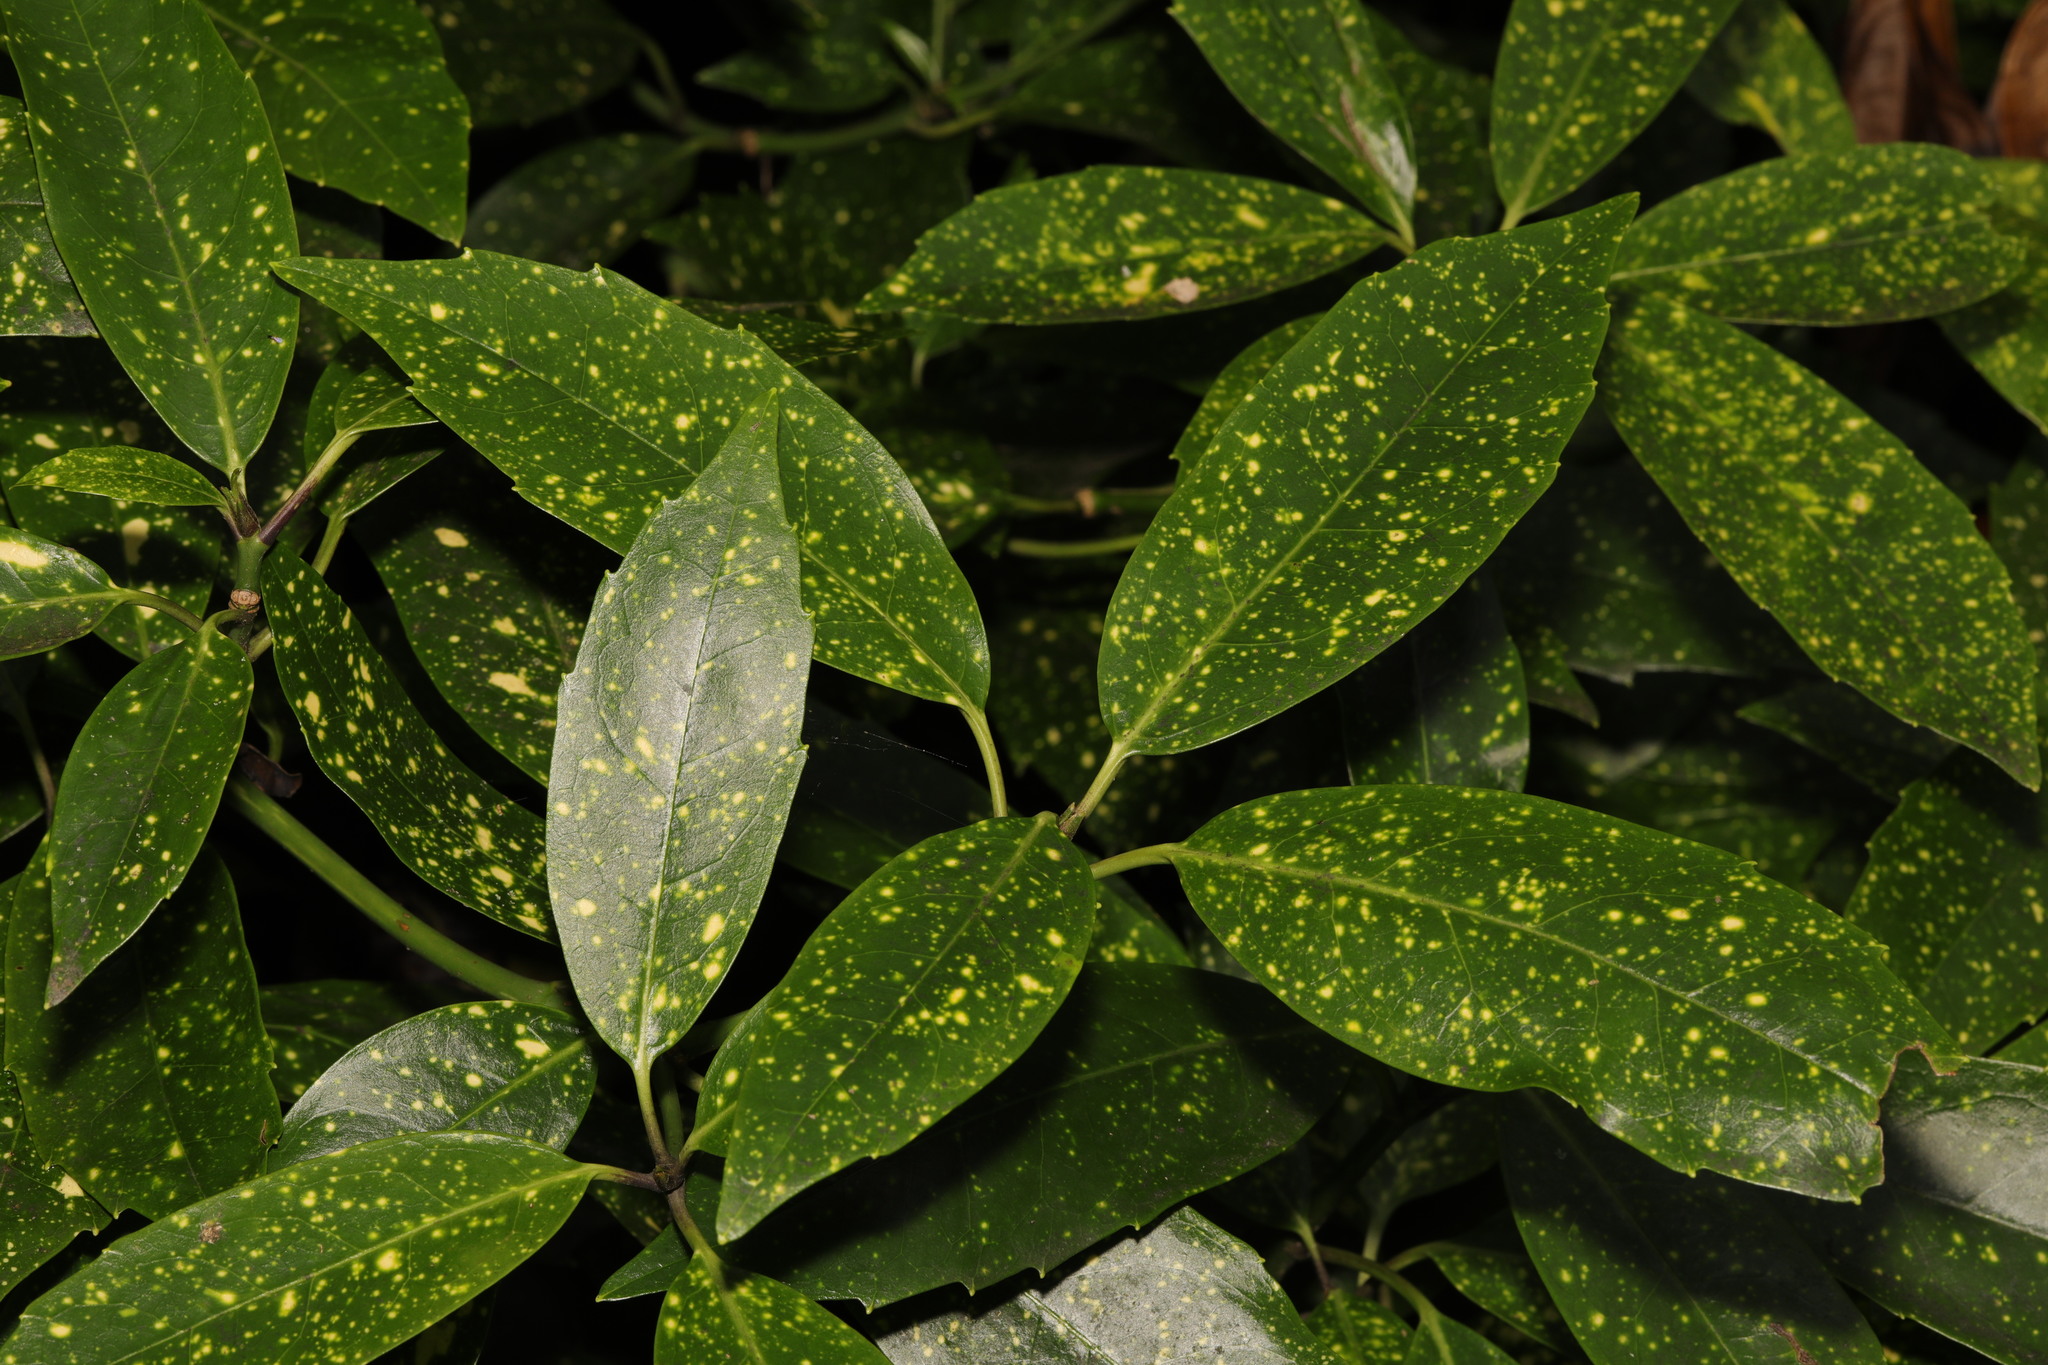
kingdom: Plantae
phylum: Tracheophyta
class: Magnoliopsida
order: Garryales
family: Garryaceae
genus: Aucuba
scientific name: Aucuba japonica
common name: Spotted-laurel
